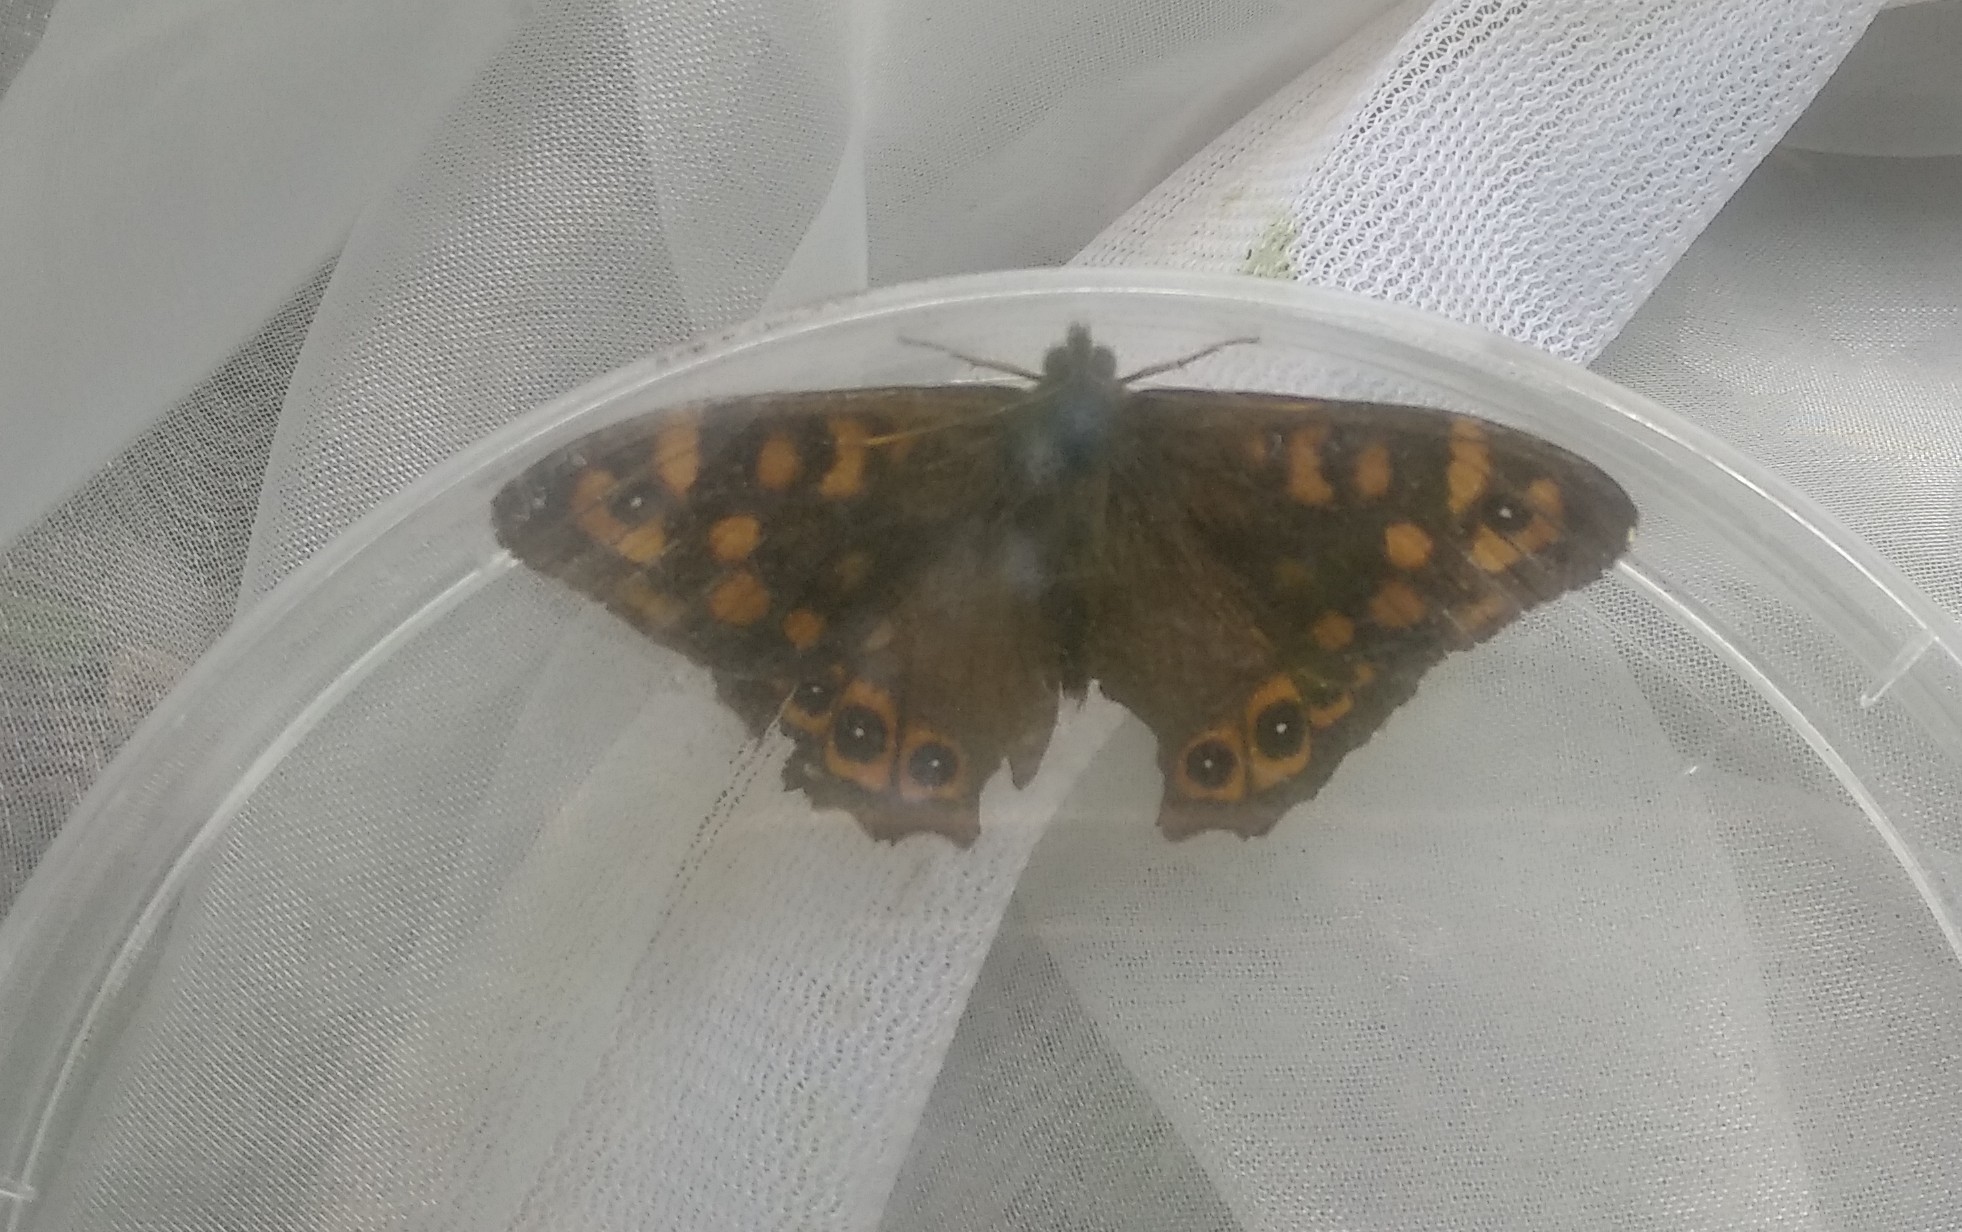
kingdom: Animalia
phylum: Arthropoda
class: Insecta
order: Lepidoptera
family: Nymphalidae
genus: Pararge
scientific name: Pararge aegeria
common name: Speckled wood
